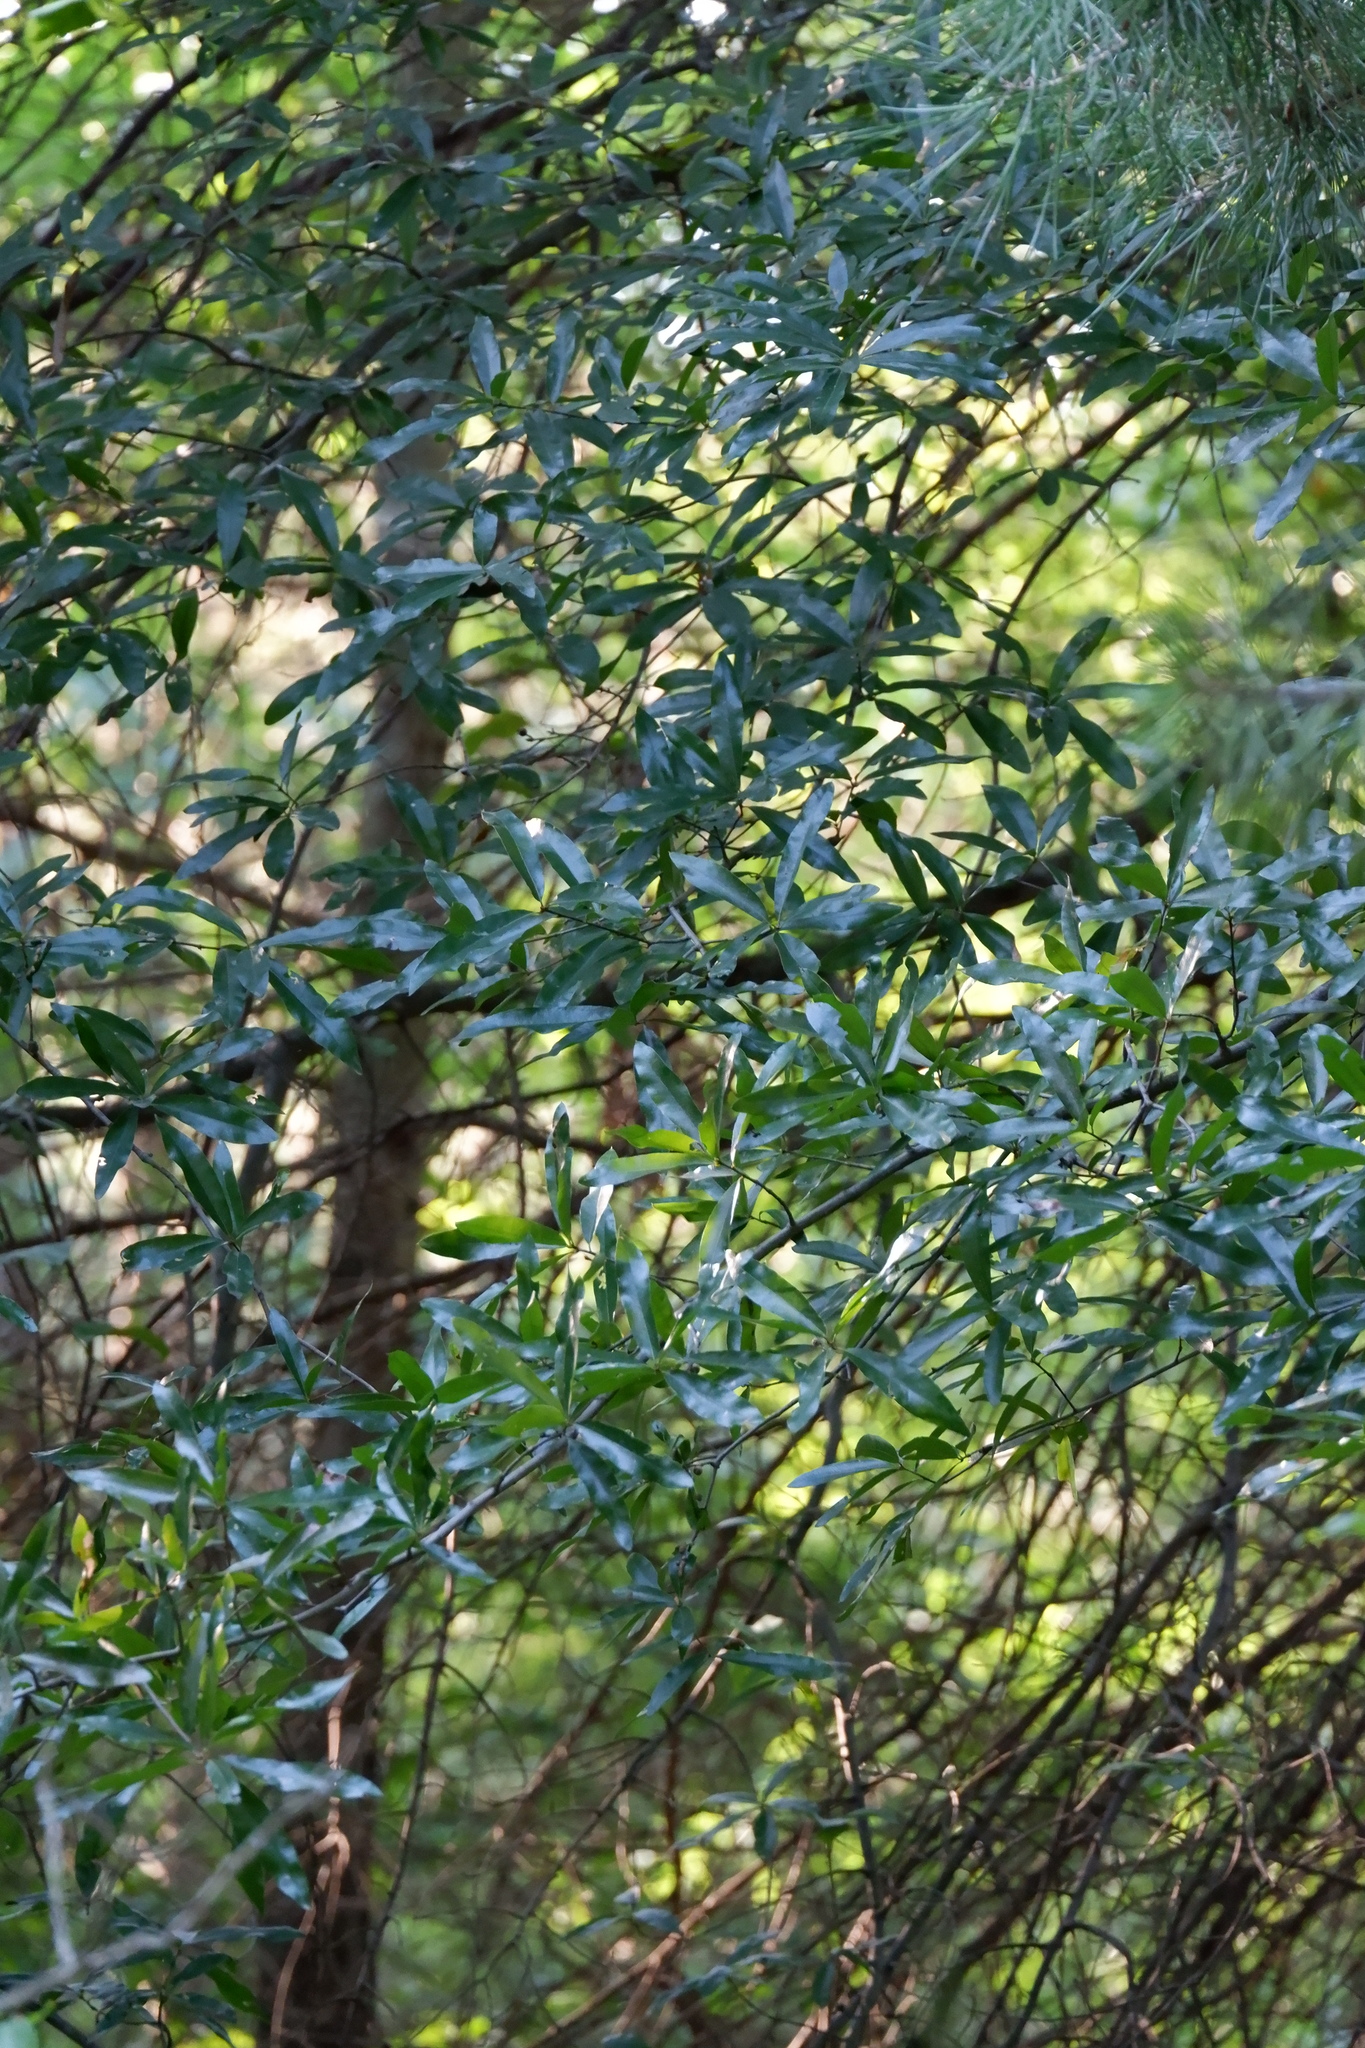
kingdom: Plantae
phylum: Tracheophyta
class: Magnoliopsida
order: Fagales
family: Fagaceae
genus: Quercus
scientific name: Quercus phellos
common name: Willow oak
